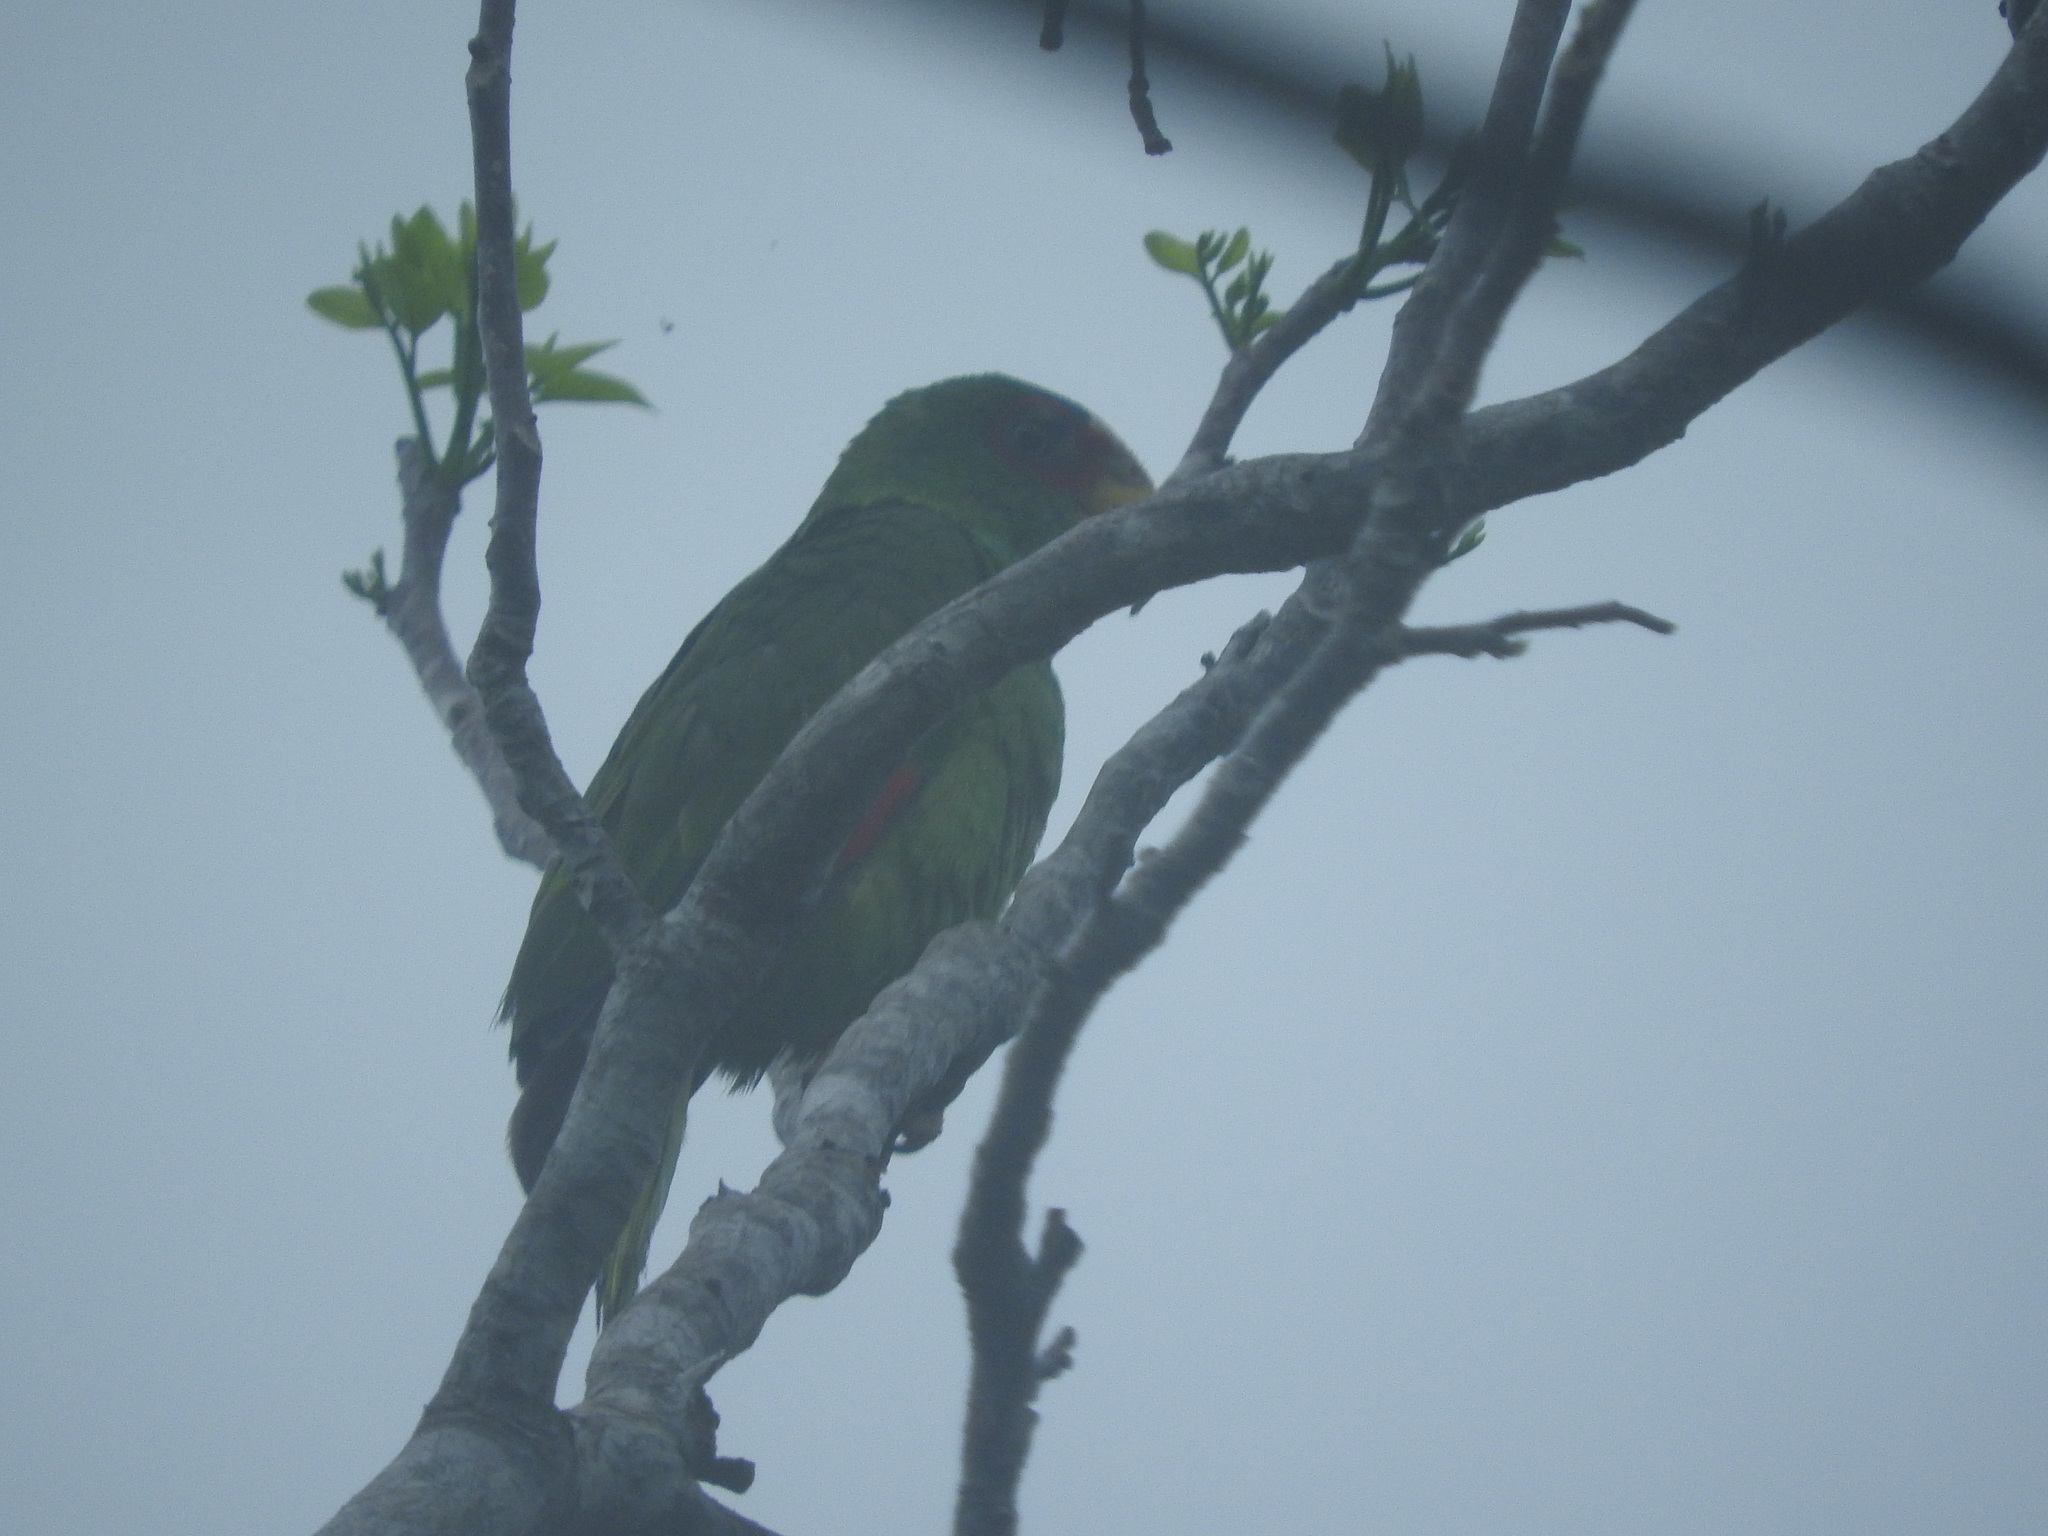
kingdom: Animalia
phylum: Chordata
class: Aves
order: Psittaciformes
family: Psittacidae
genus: Amazona
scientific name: Amazona albifrons
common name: White-fronted amazon
